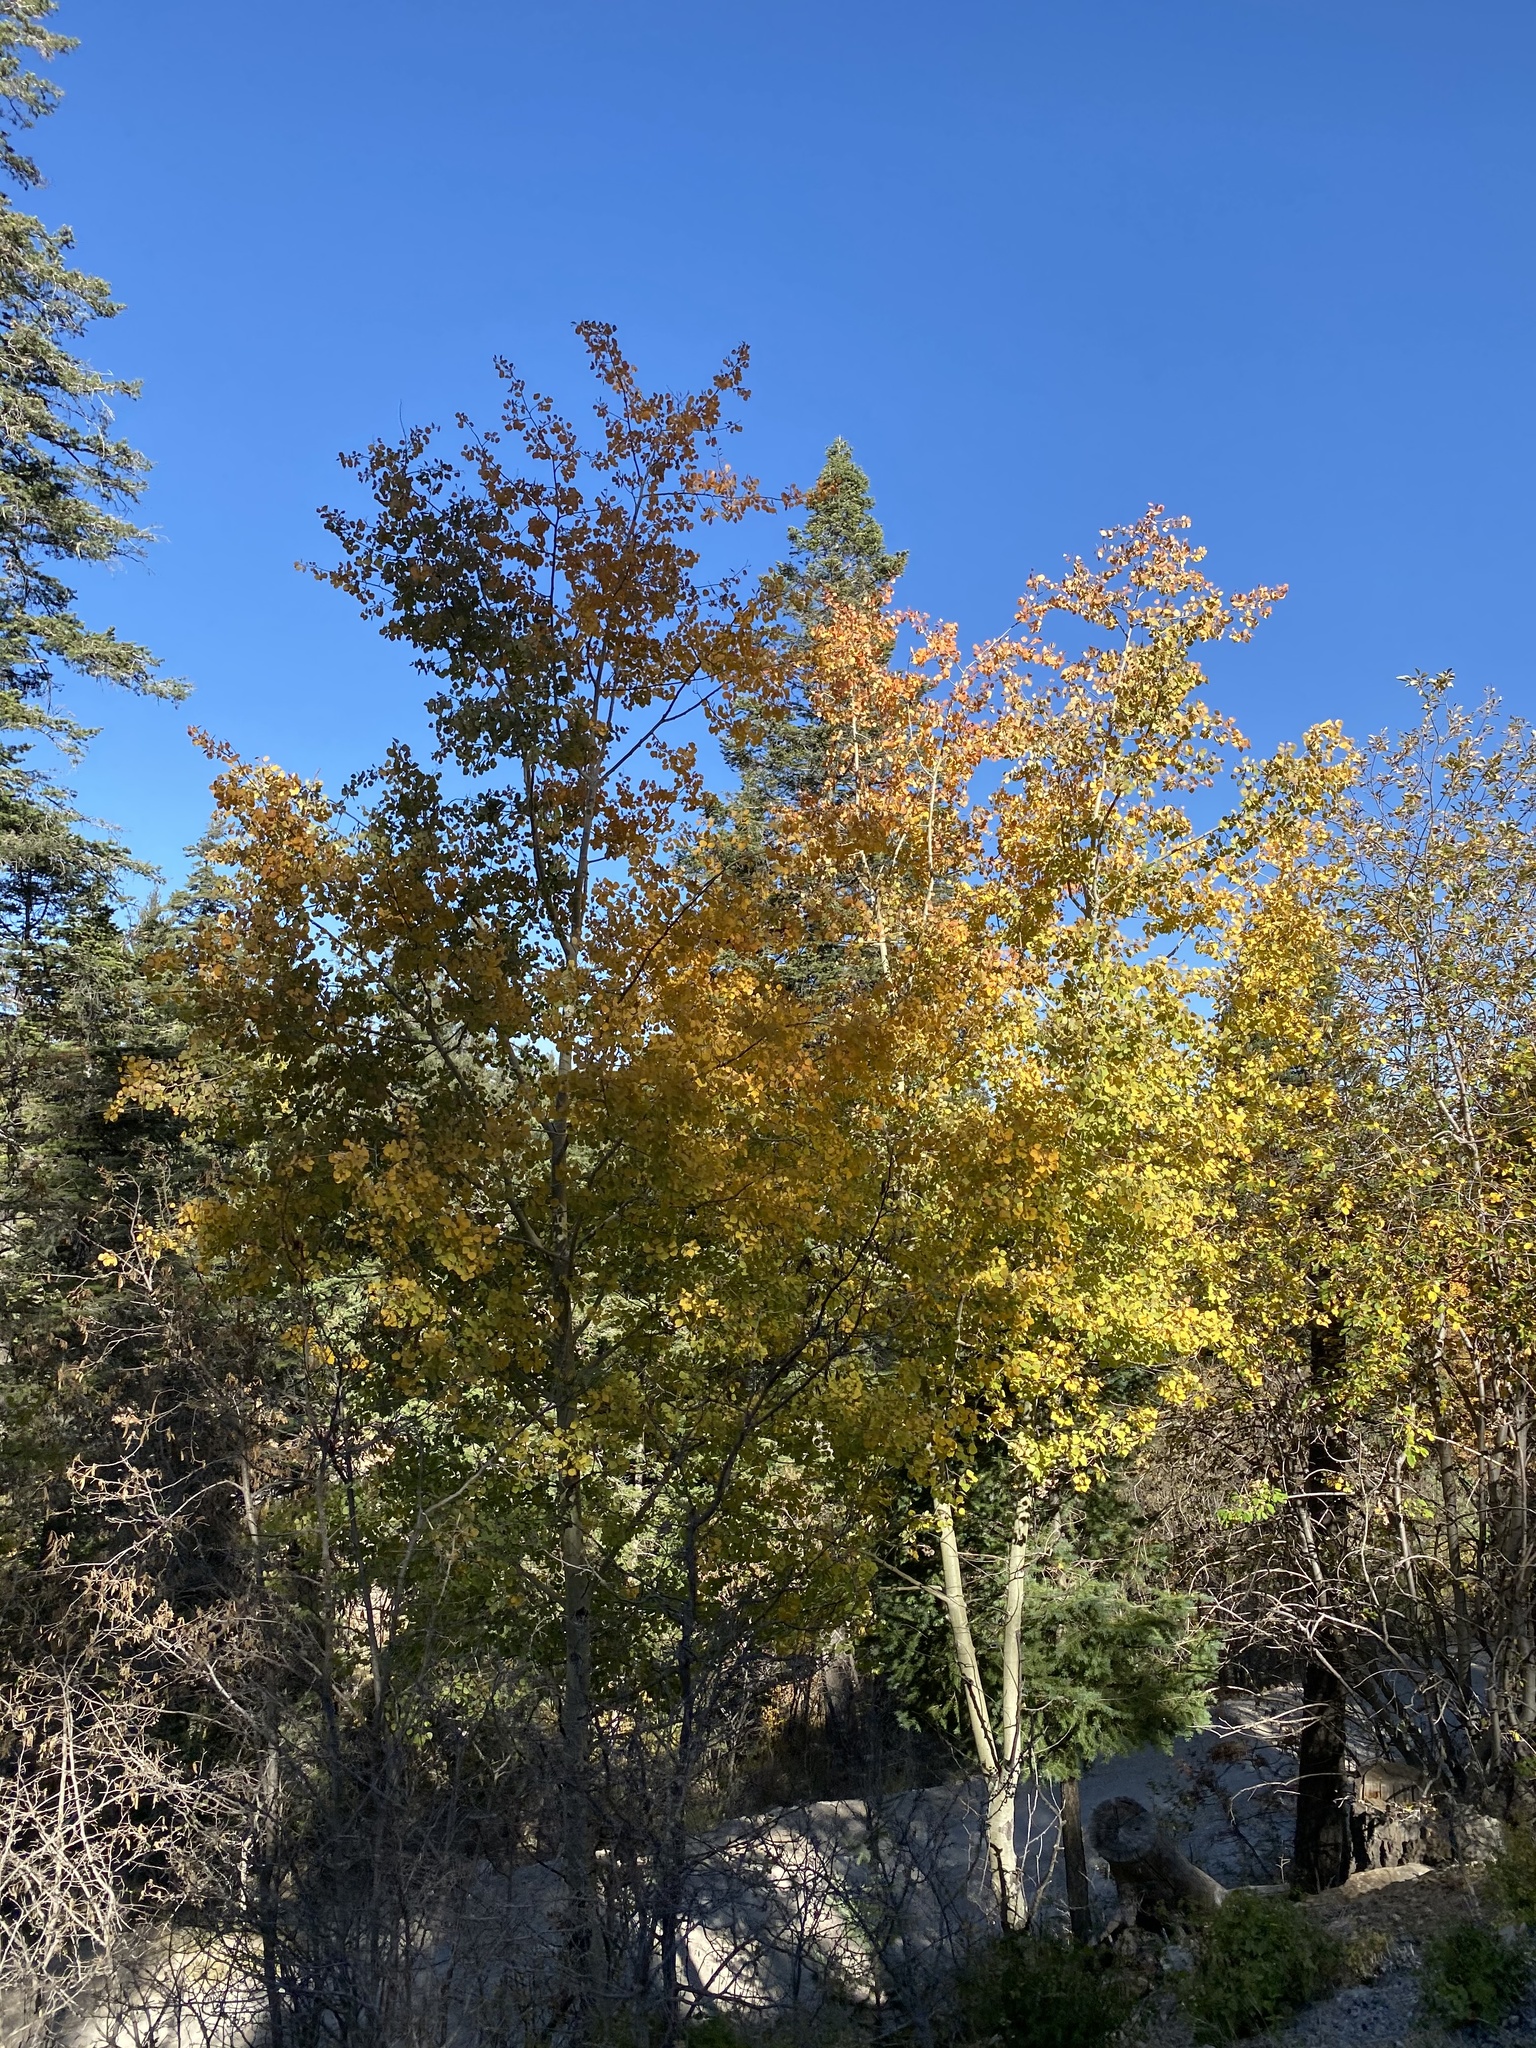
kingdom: Plantae
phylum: Tracheophyta
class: Magnoliopsida
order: Malpighiales
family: Salicaceae
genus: Populus
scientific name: Populus tremuloides
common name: Quaking aspen
